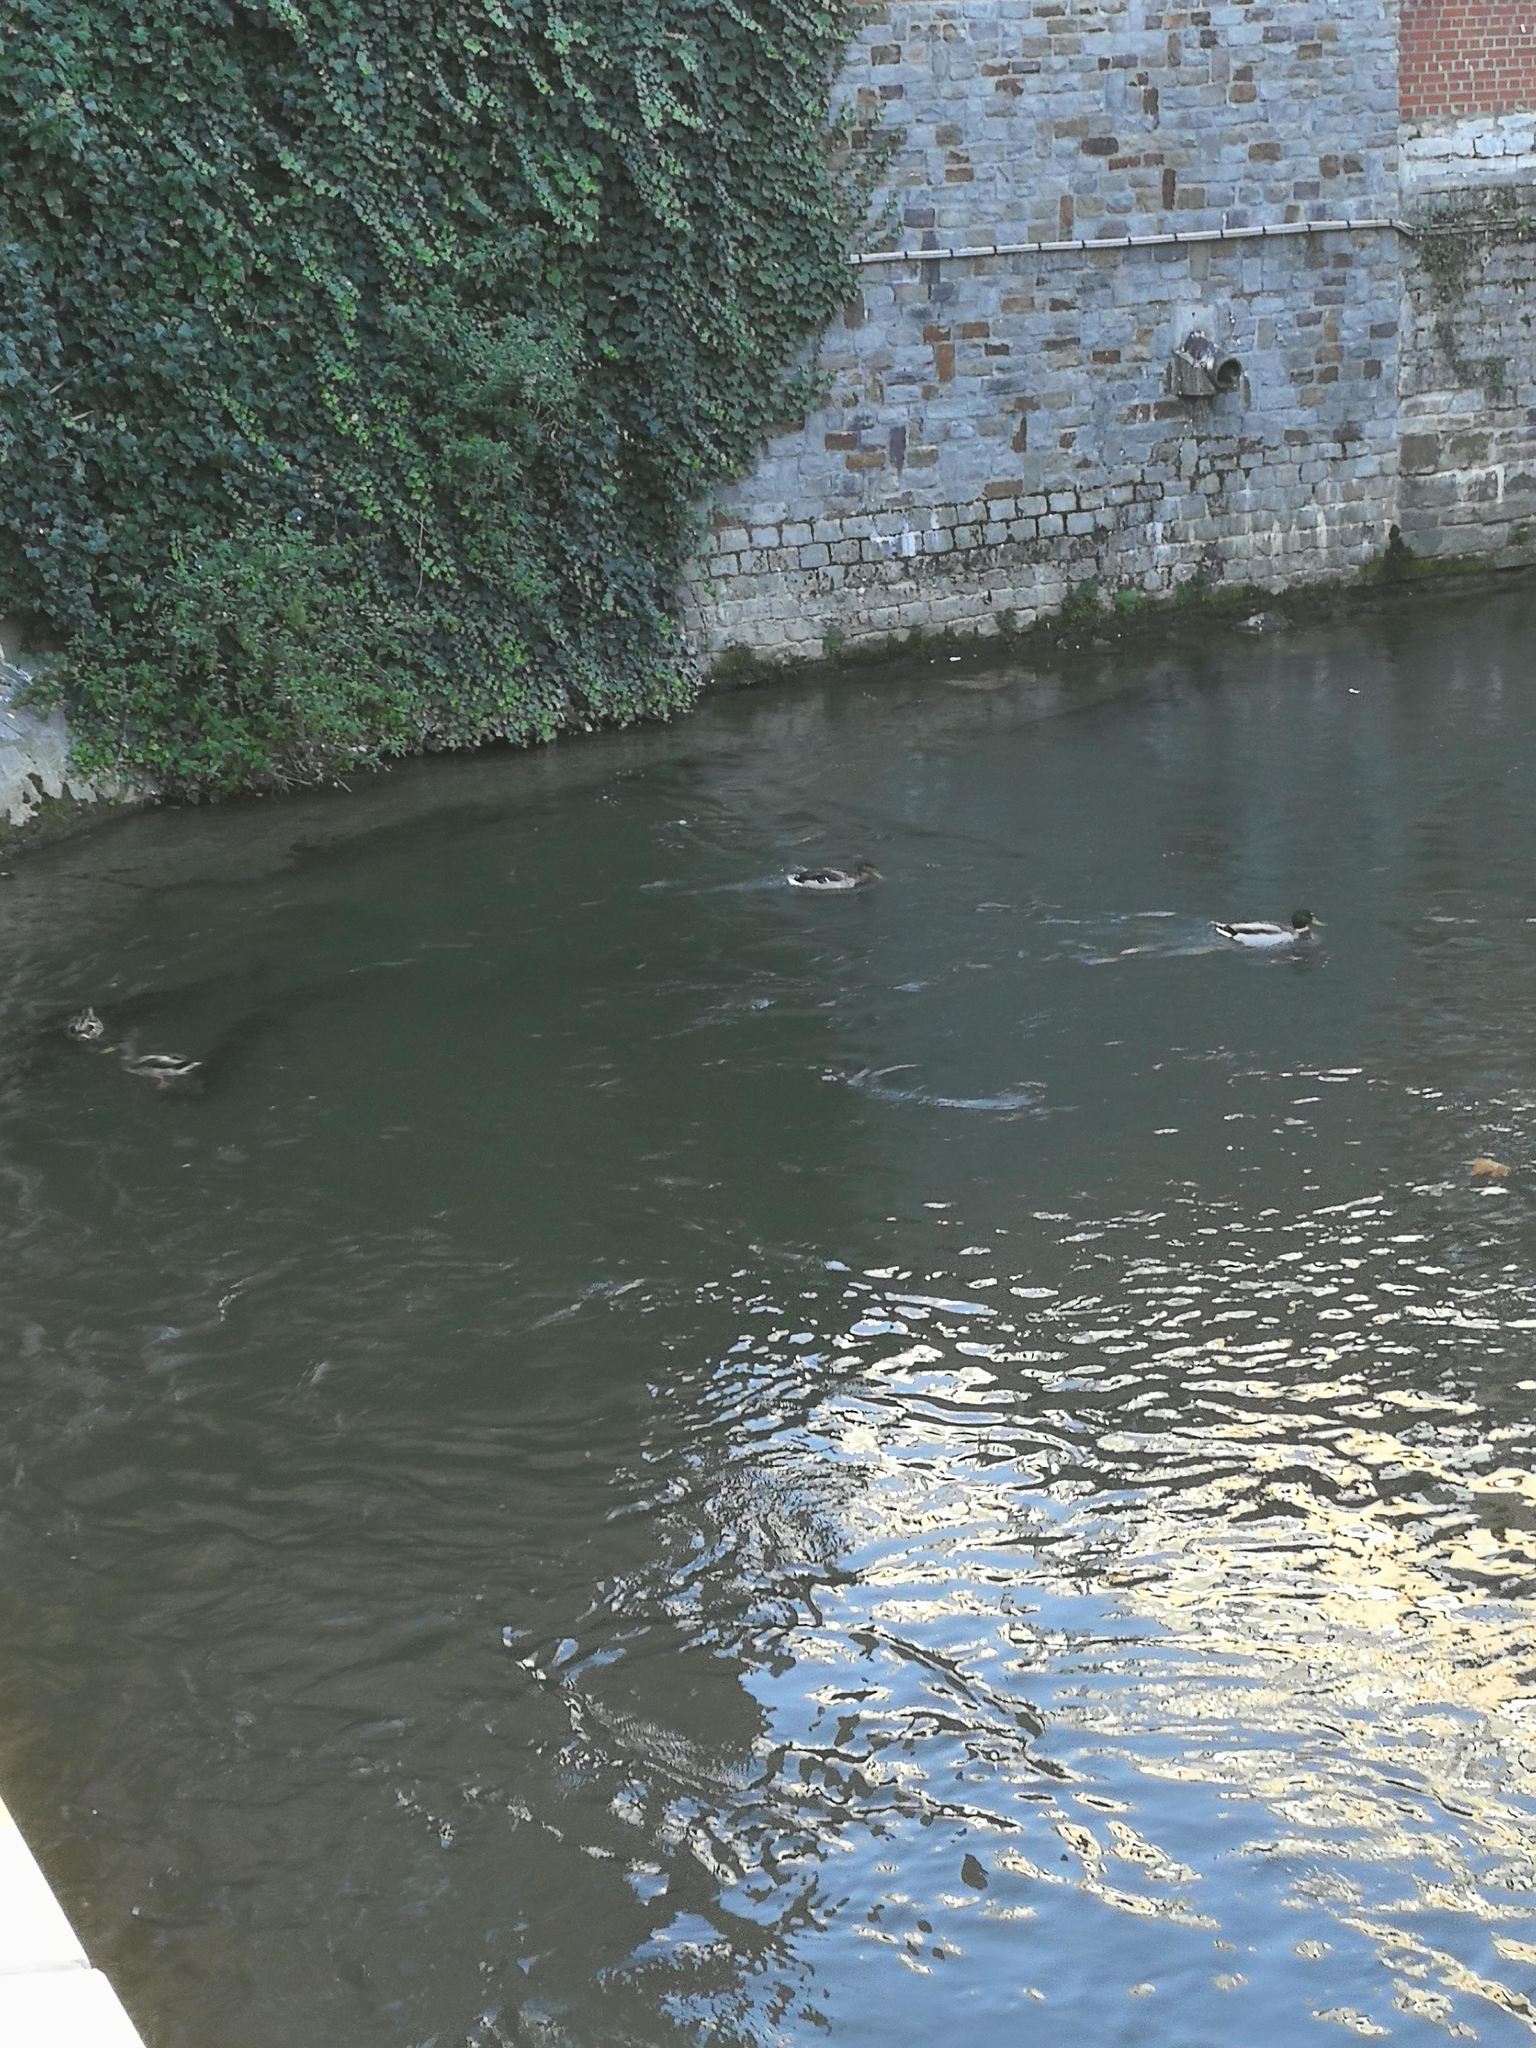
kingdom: Animalia
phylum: Chordata
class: Aves
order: Anseriformes
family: Anatidae
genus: Anas
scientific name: Anas platyrhynchos
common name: Mallard
